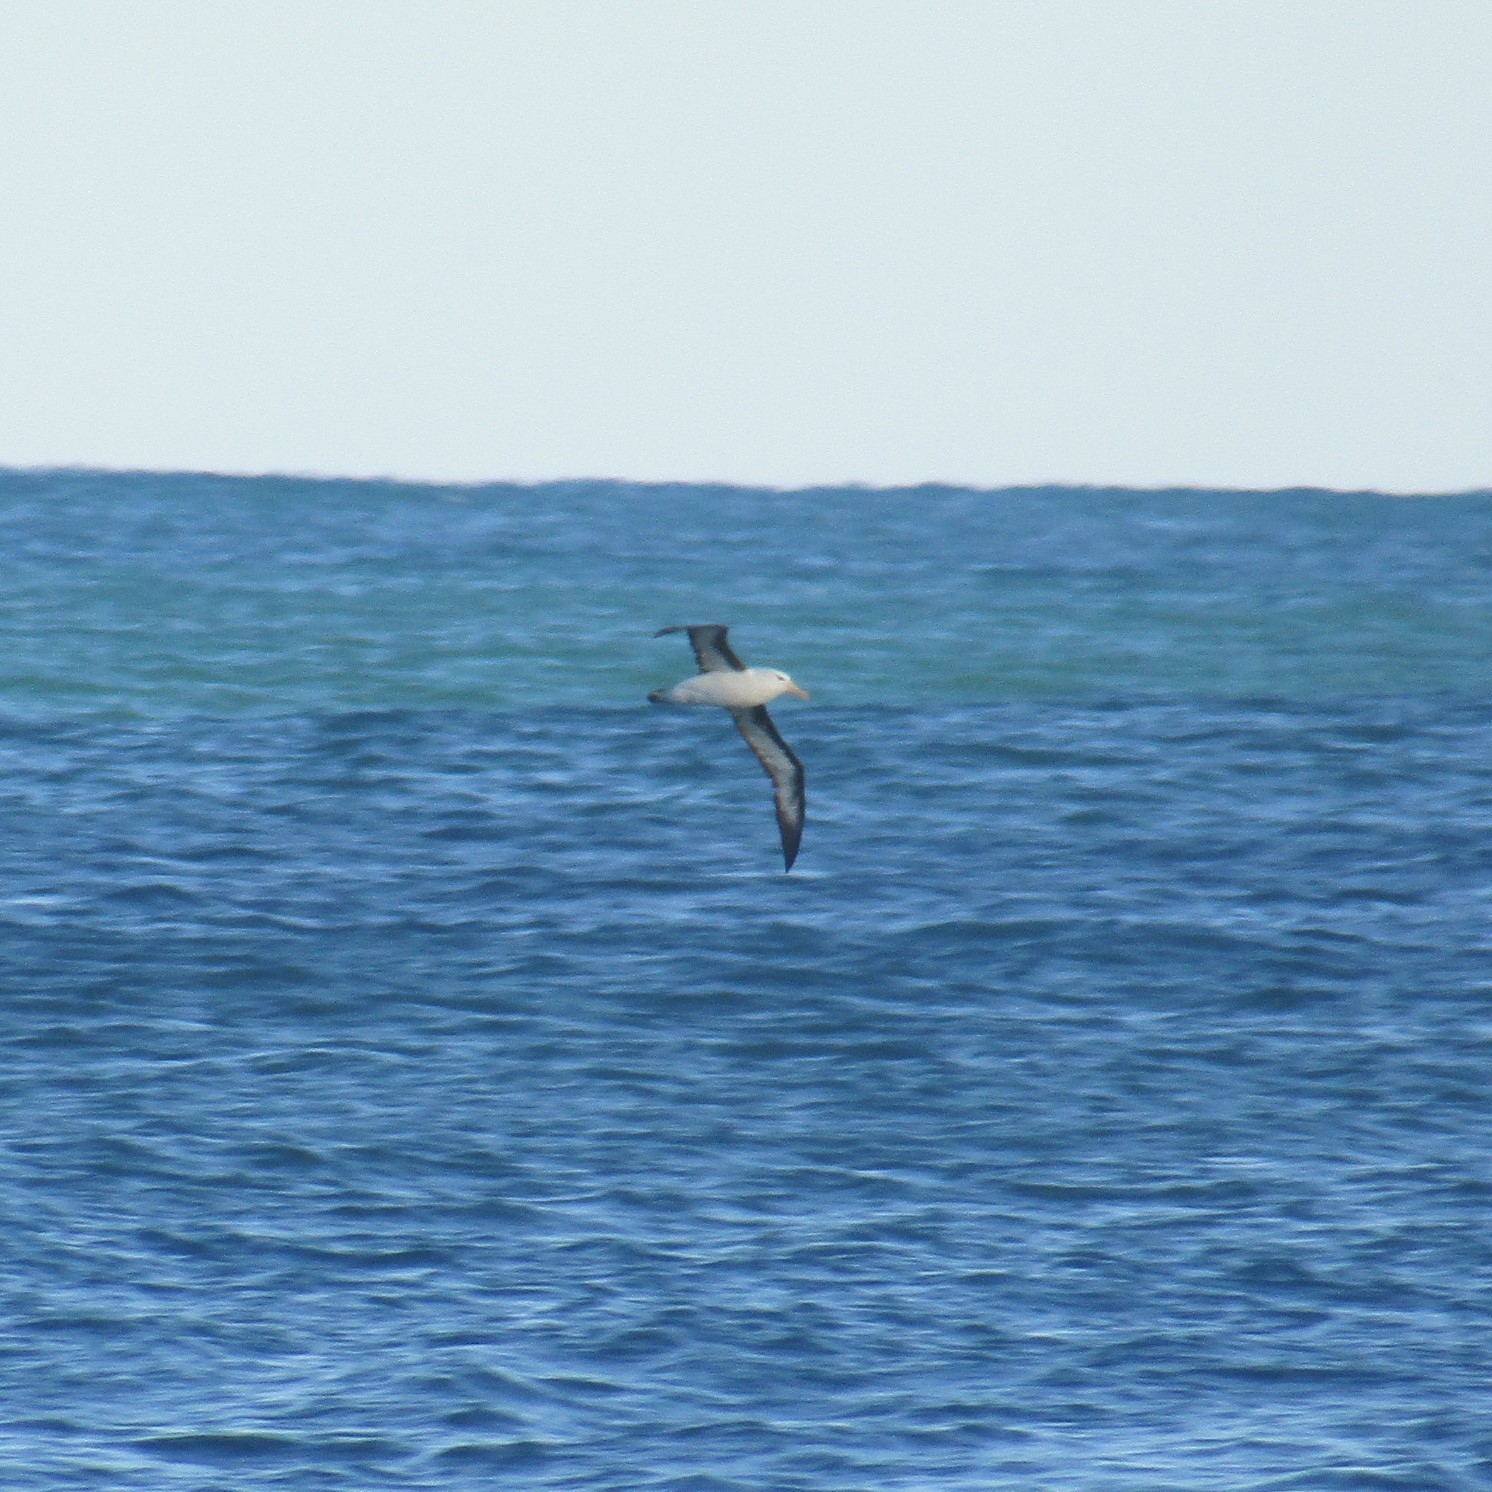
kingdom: Animalia
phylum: Chordata
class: Aves
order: Procellariiformes
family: Diomedeidae
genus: Thalassarche
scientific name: Thalassarche melanophris
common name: Black-browed albatross
